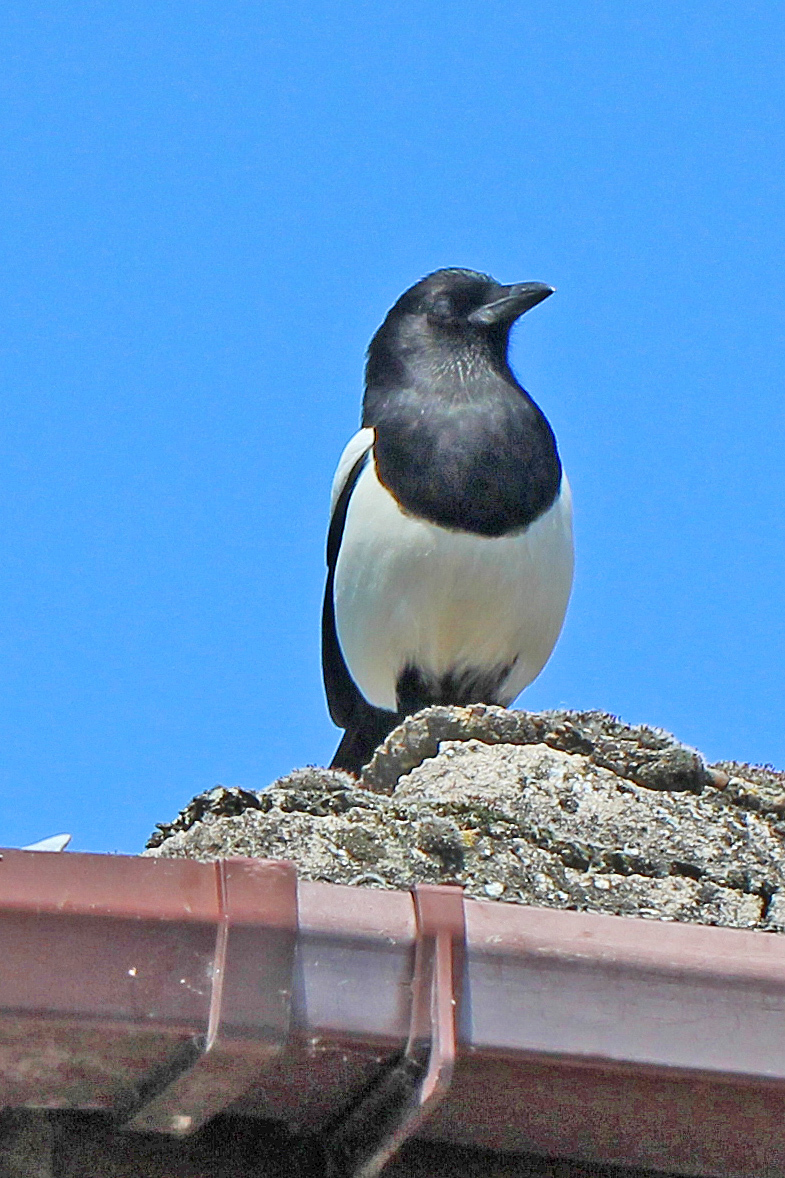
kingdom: Animalia
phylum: Chordata
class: Aves
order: Passeriformes
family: Corvidae
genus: Pica
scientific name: Pica pica
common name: Eurasian magpie
